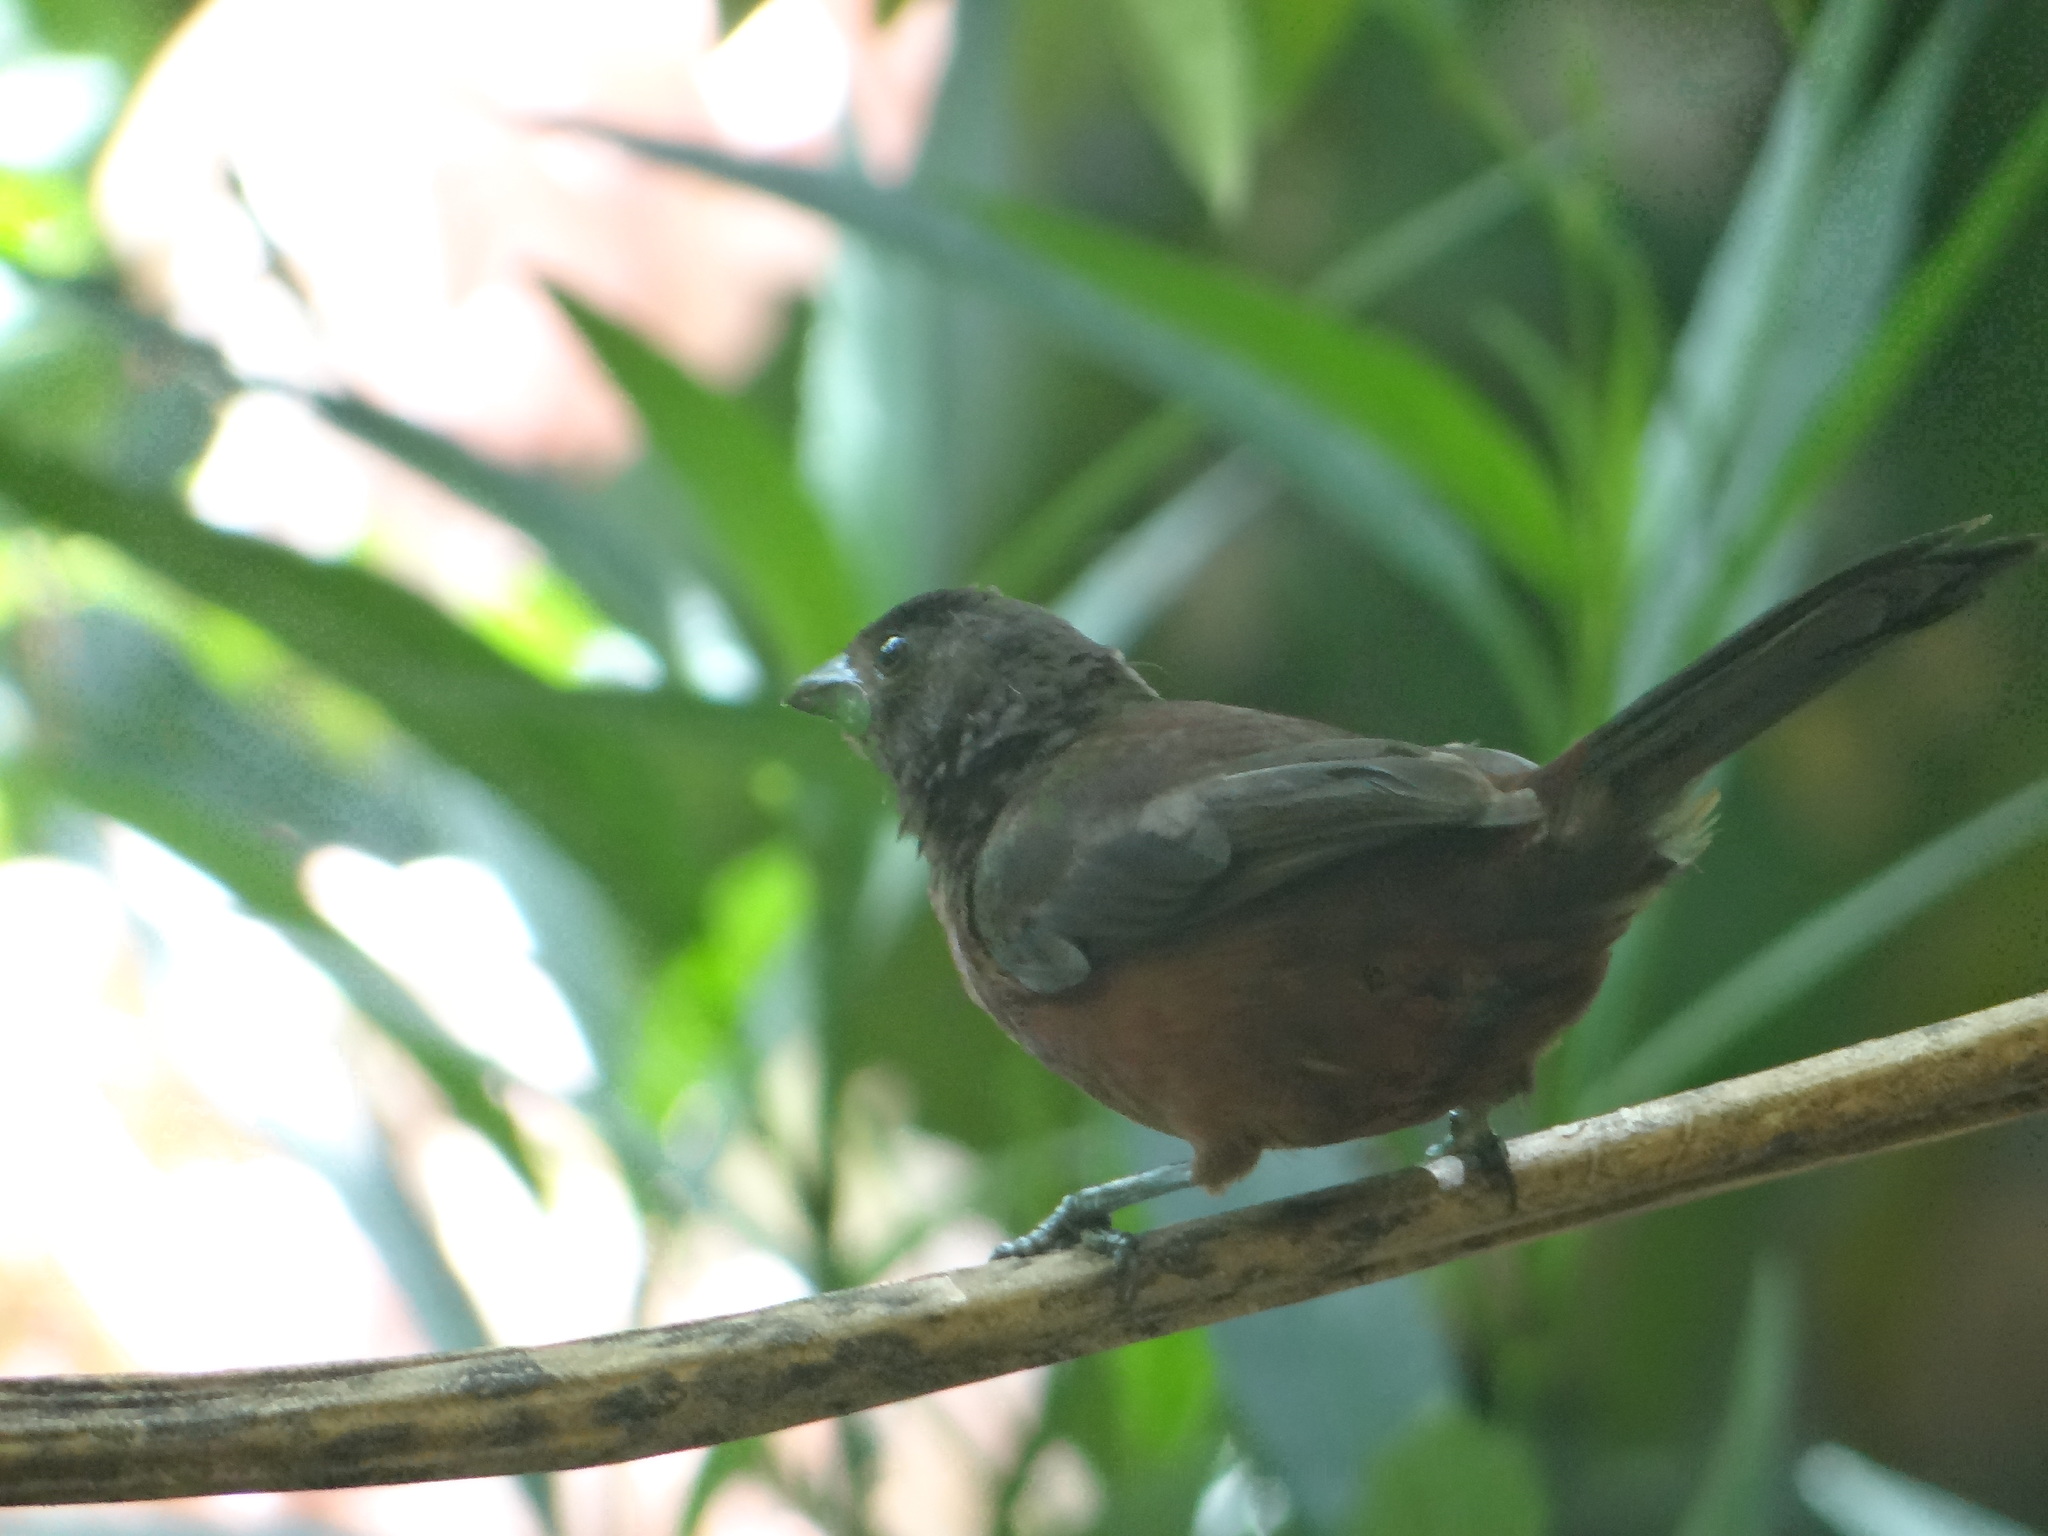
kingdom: Animalia
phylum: Chordata
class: Aves
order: Passeriformes
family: Thraupidae
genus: Ramphocelus
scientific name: Ramphocelus carbo
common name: Silver-beaked tanager
